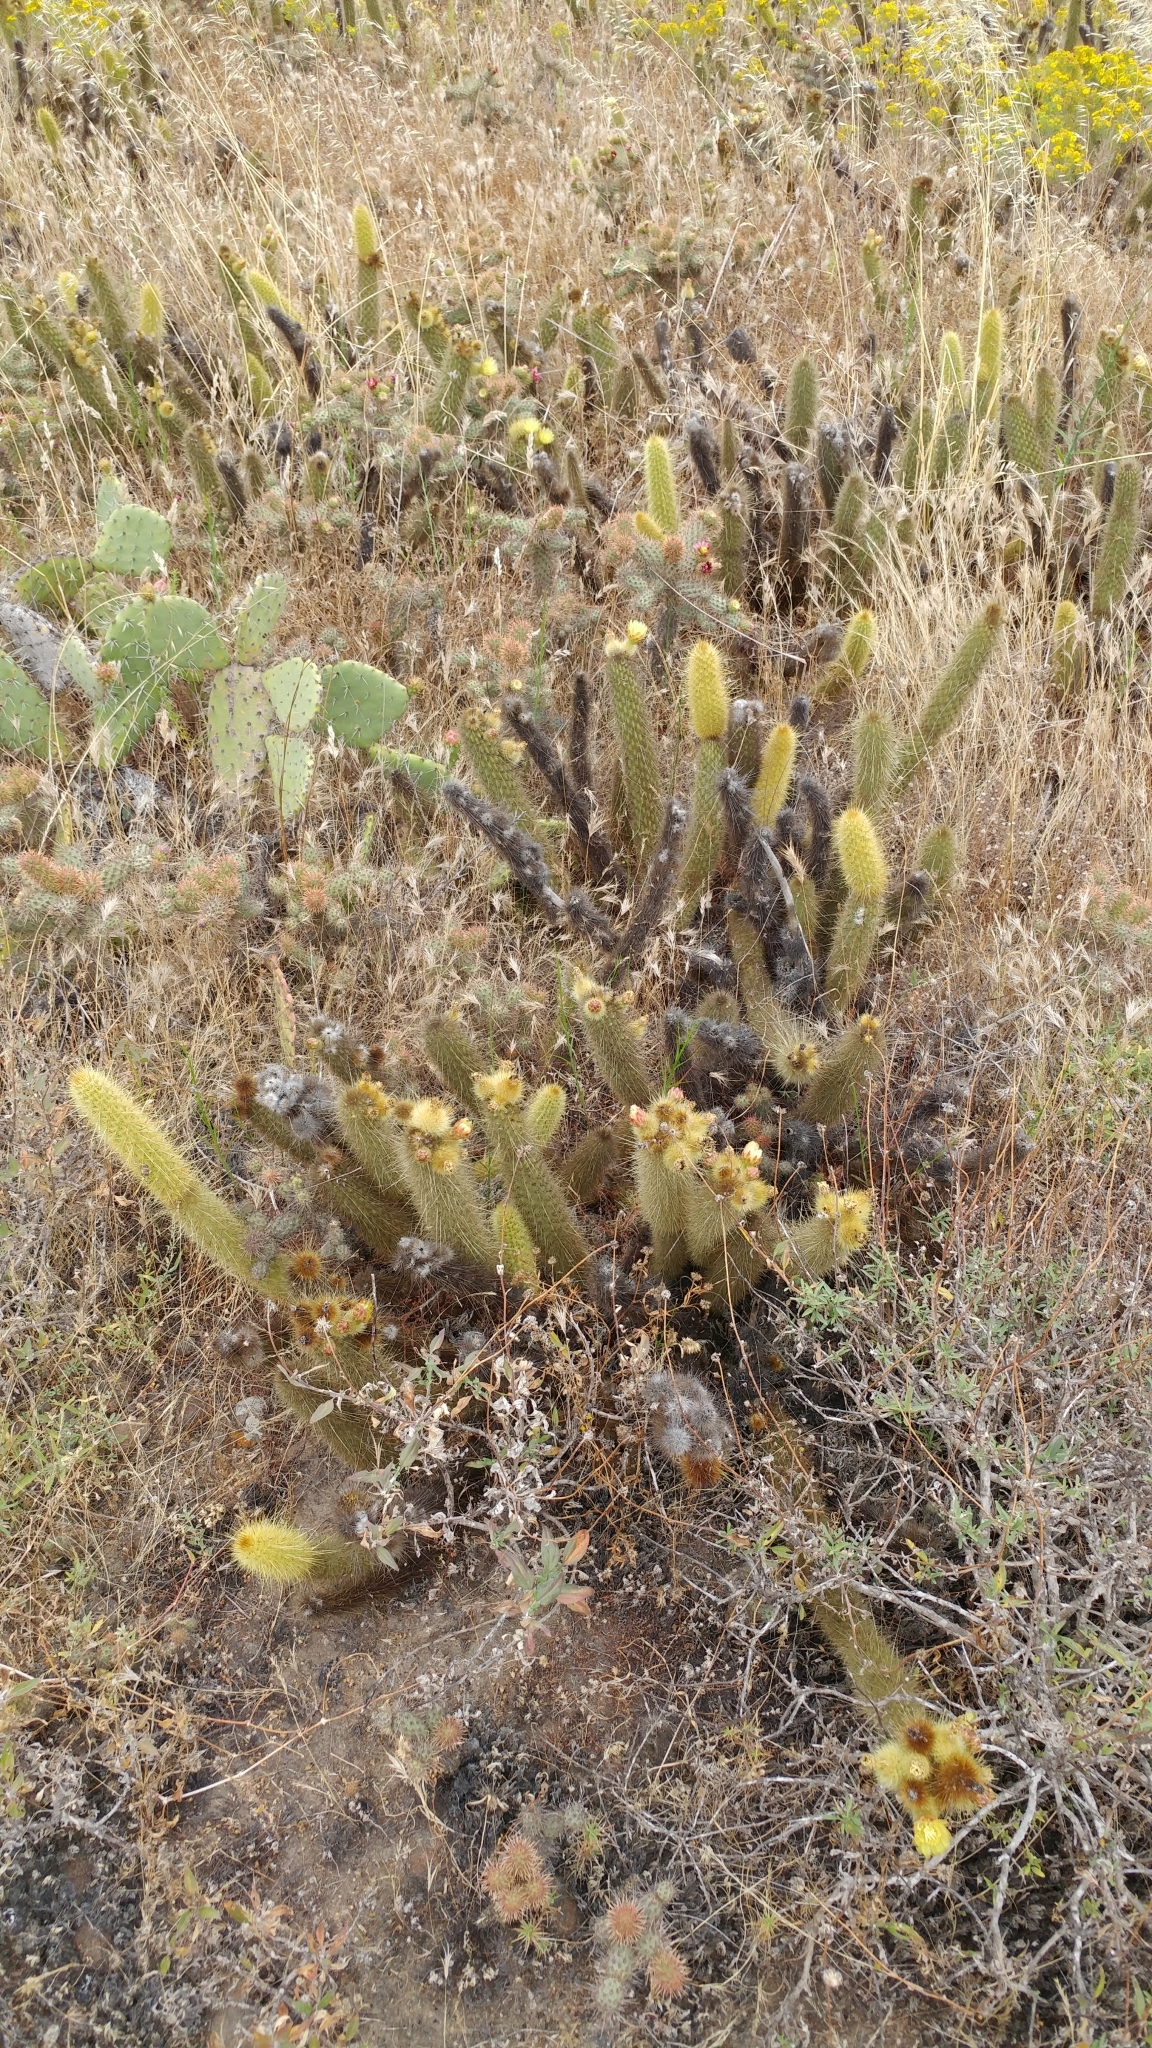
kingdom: Plantae
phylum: Tracheophyta
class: Magnoliopsida
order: Caryophyllales
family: Cactaceae
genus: Bergerocactus
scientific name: Bergerocactus emoryi
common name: Golden snakecactus
